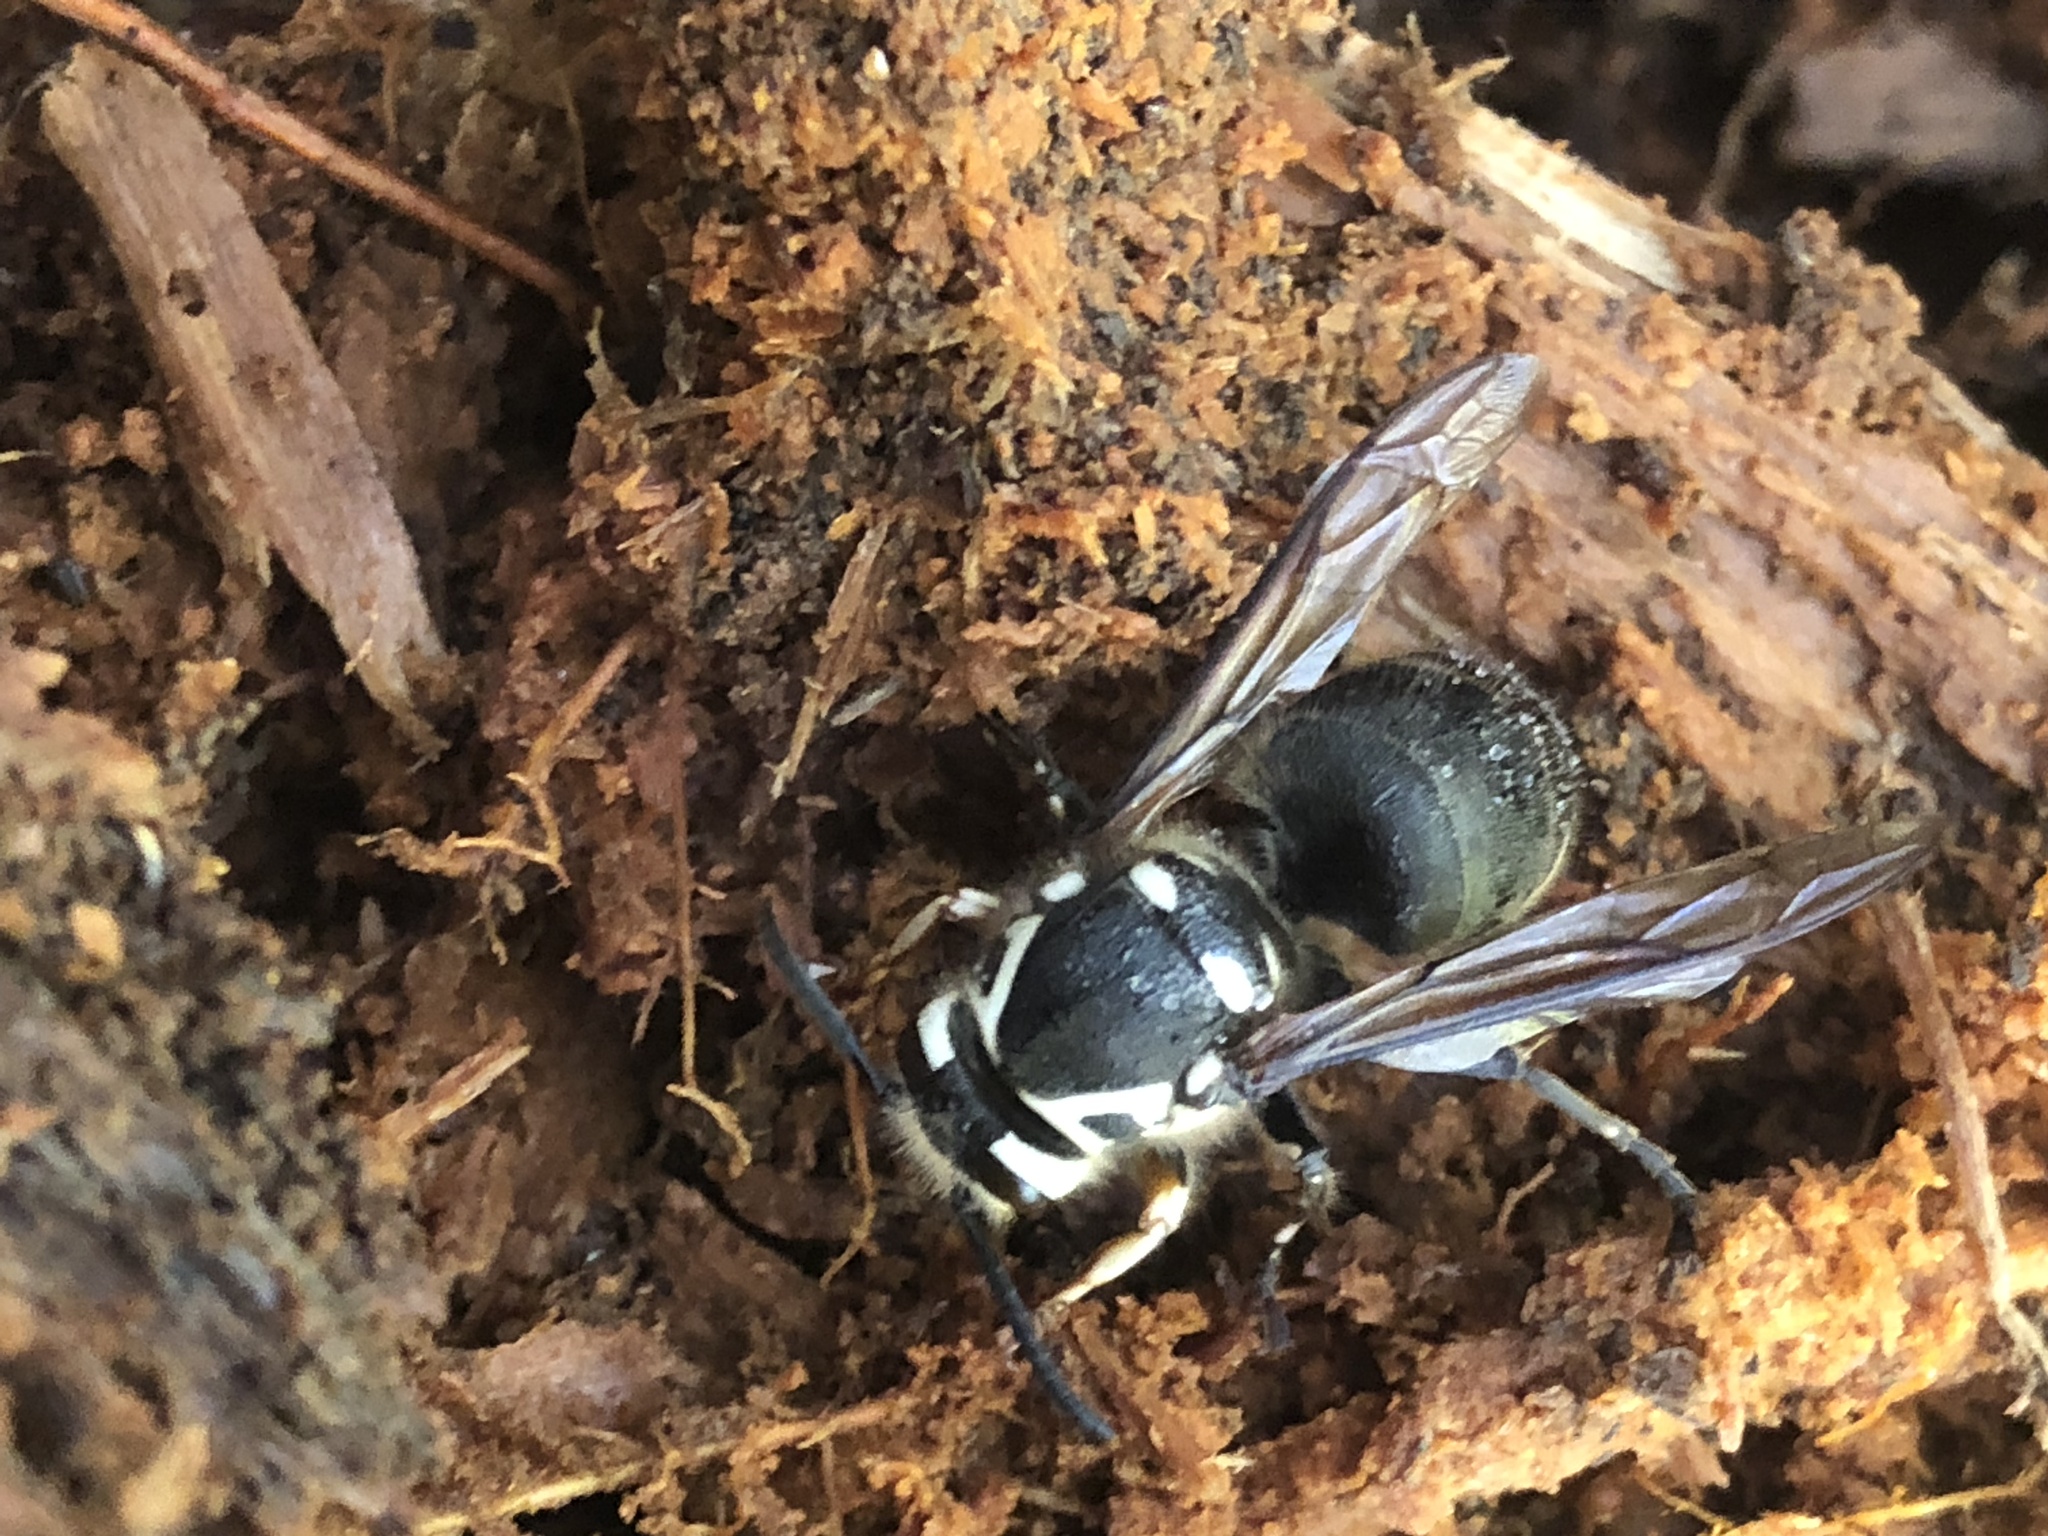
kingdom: Animalia
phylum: Arthropoda
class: Insecta
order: Hymenoptera
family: Vespidae
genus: Dolichovespula
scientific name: Dolichovespula maculata
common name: Bald-faced hornet
